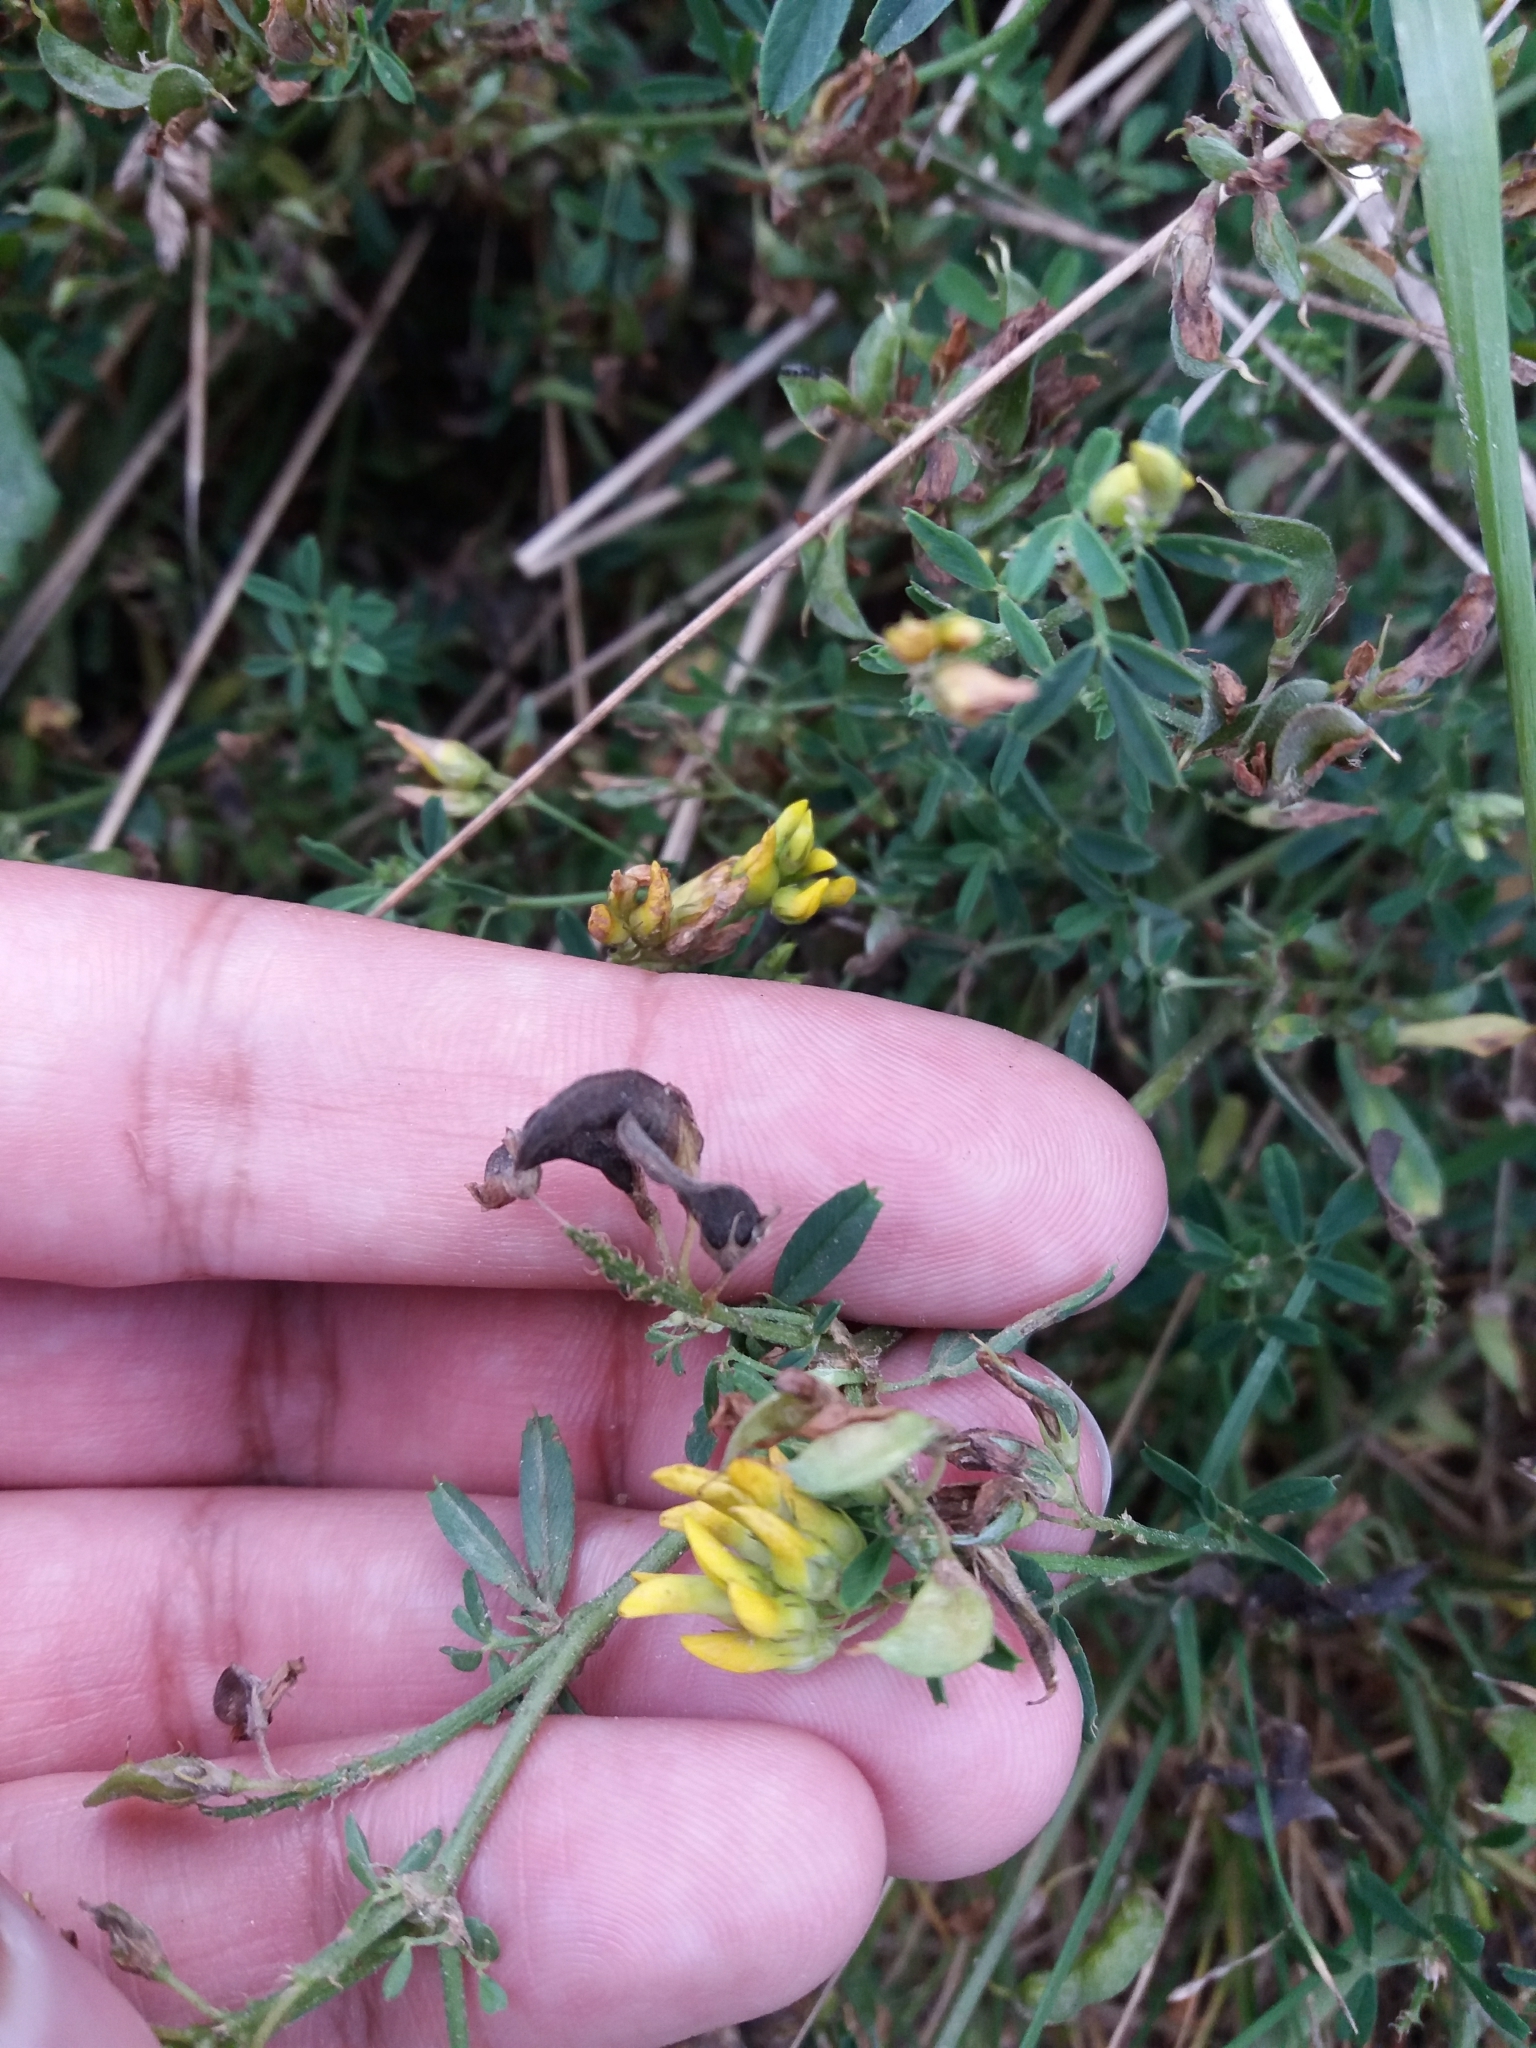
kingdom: Plantae
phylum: Tracheophyta
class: Magnoliopsida
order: Fabales
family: Fabaceae
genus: Medicago
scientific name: Medicago falcata
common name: Sickle medick
